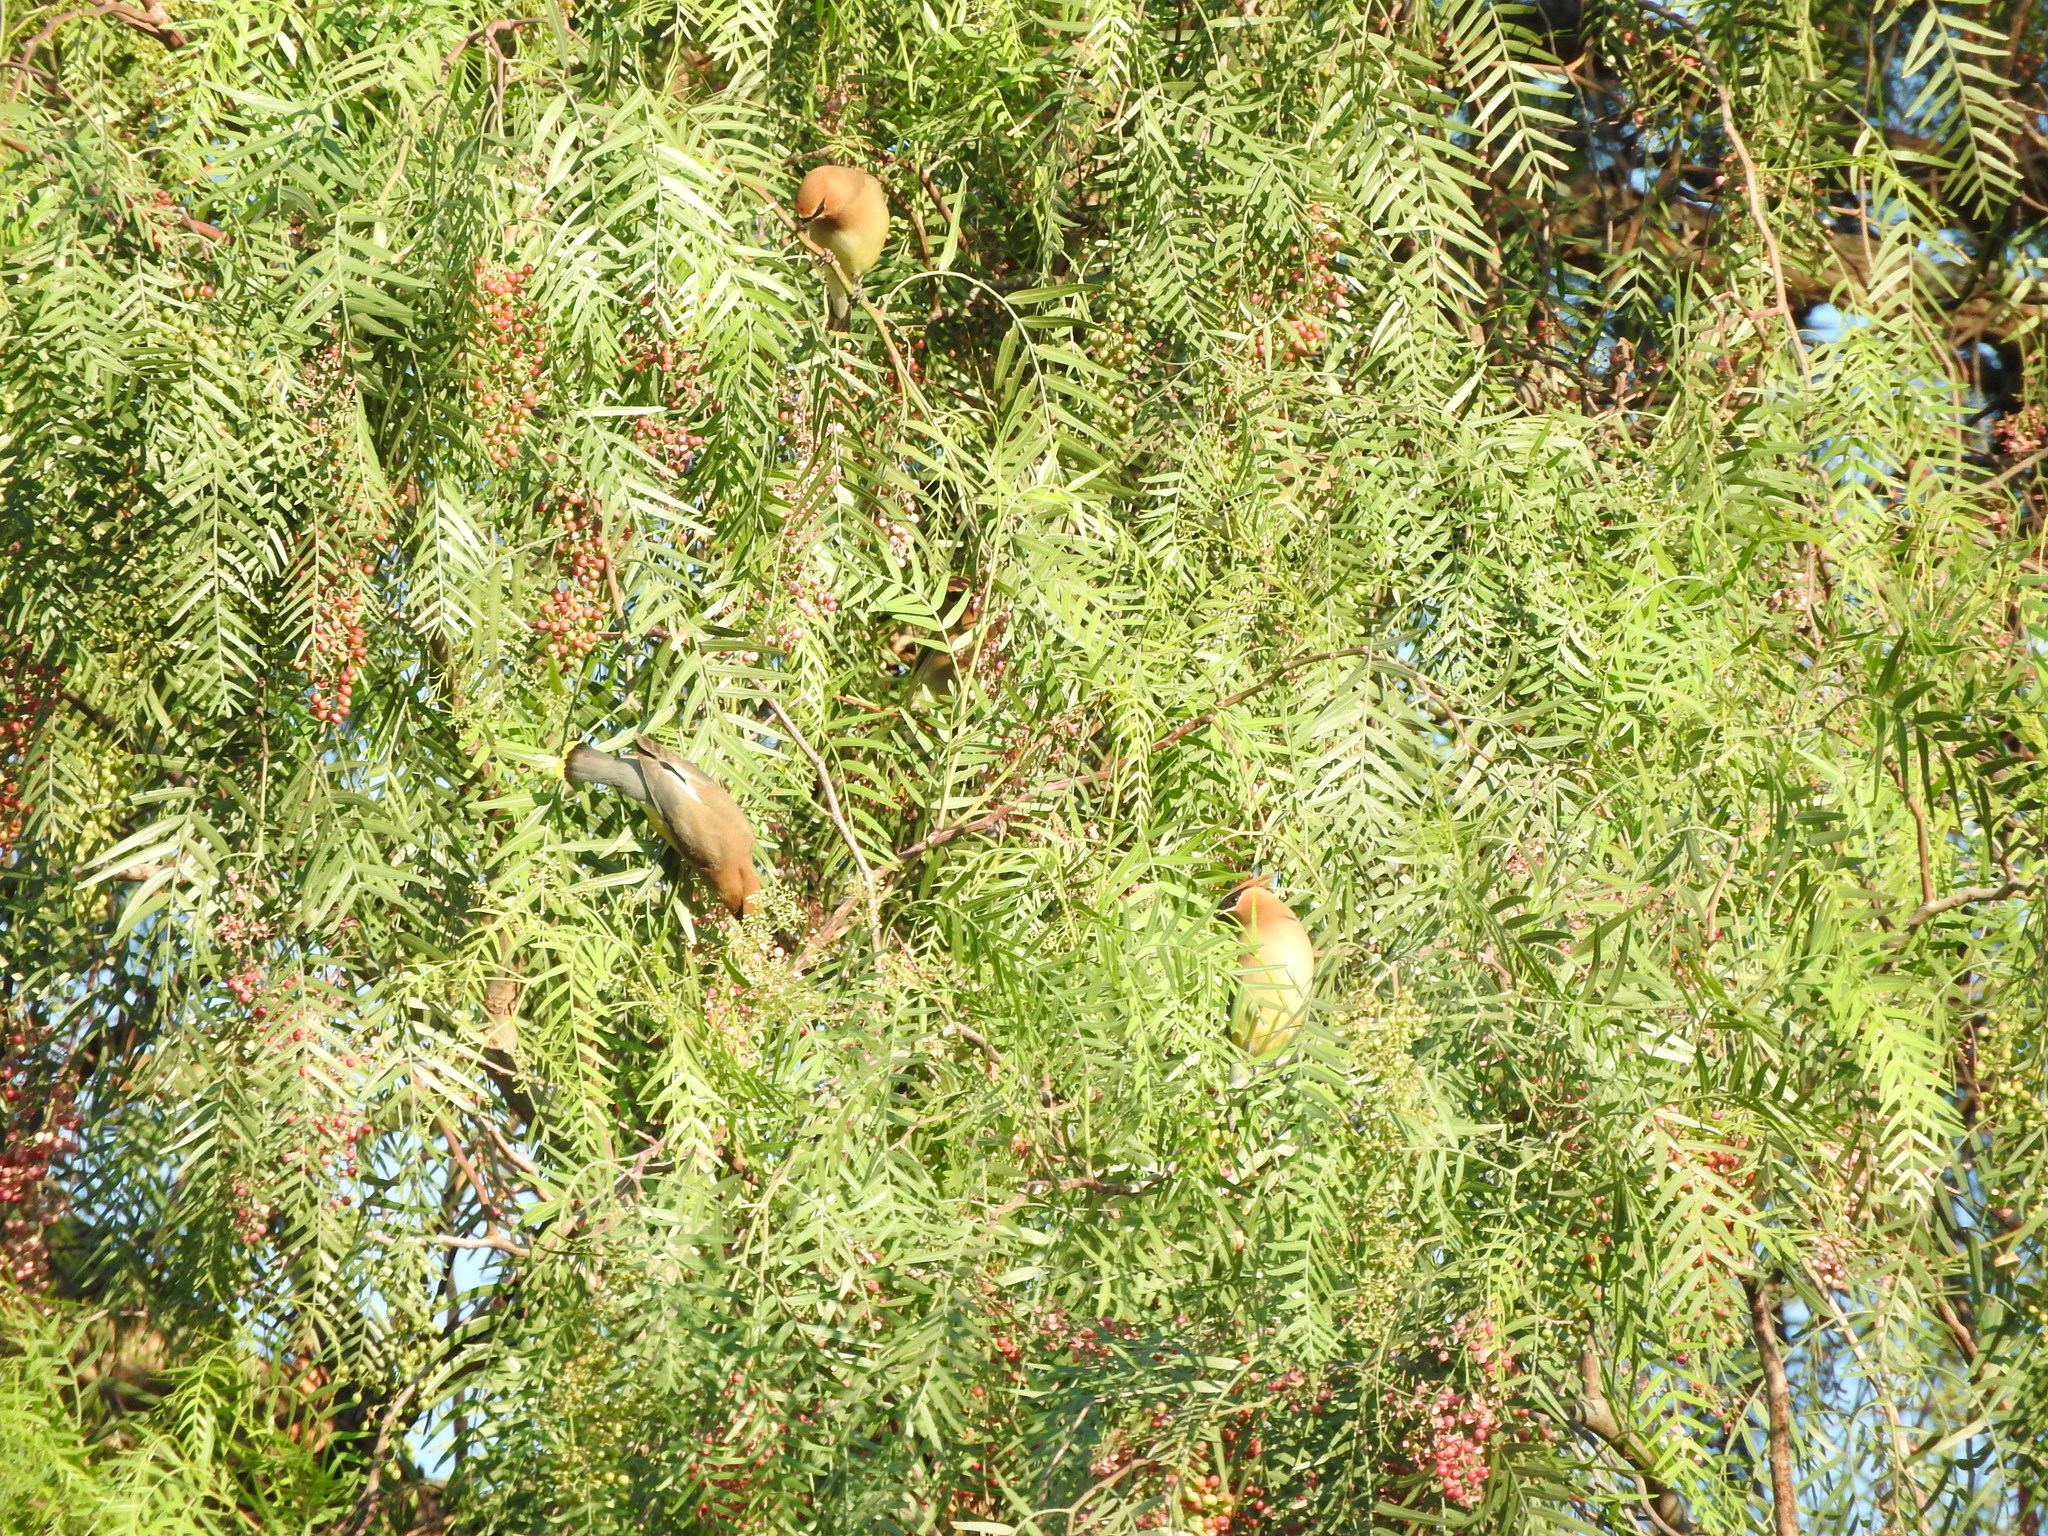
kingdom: Animalia
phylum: Chordata
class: Aves
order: Passeriformes
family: Bombycillidae
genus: Bombycilla
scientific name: Bombycilla cedrorum
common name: Cedar waxwing
